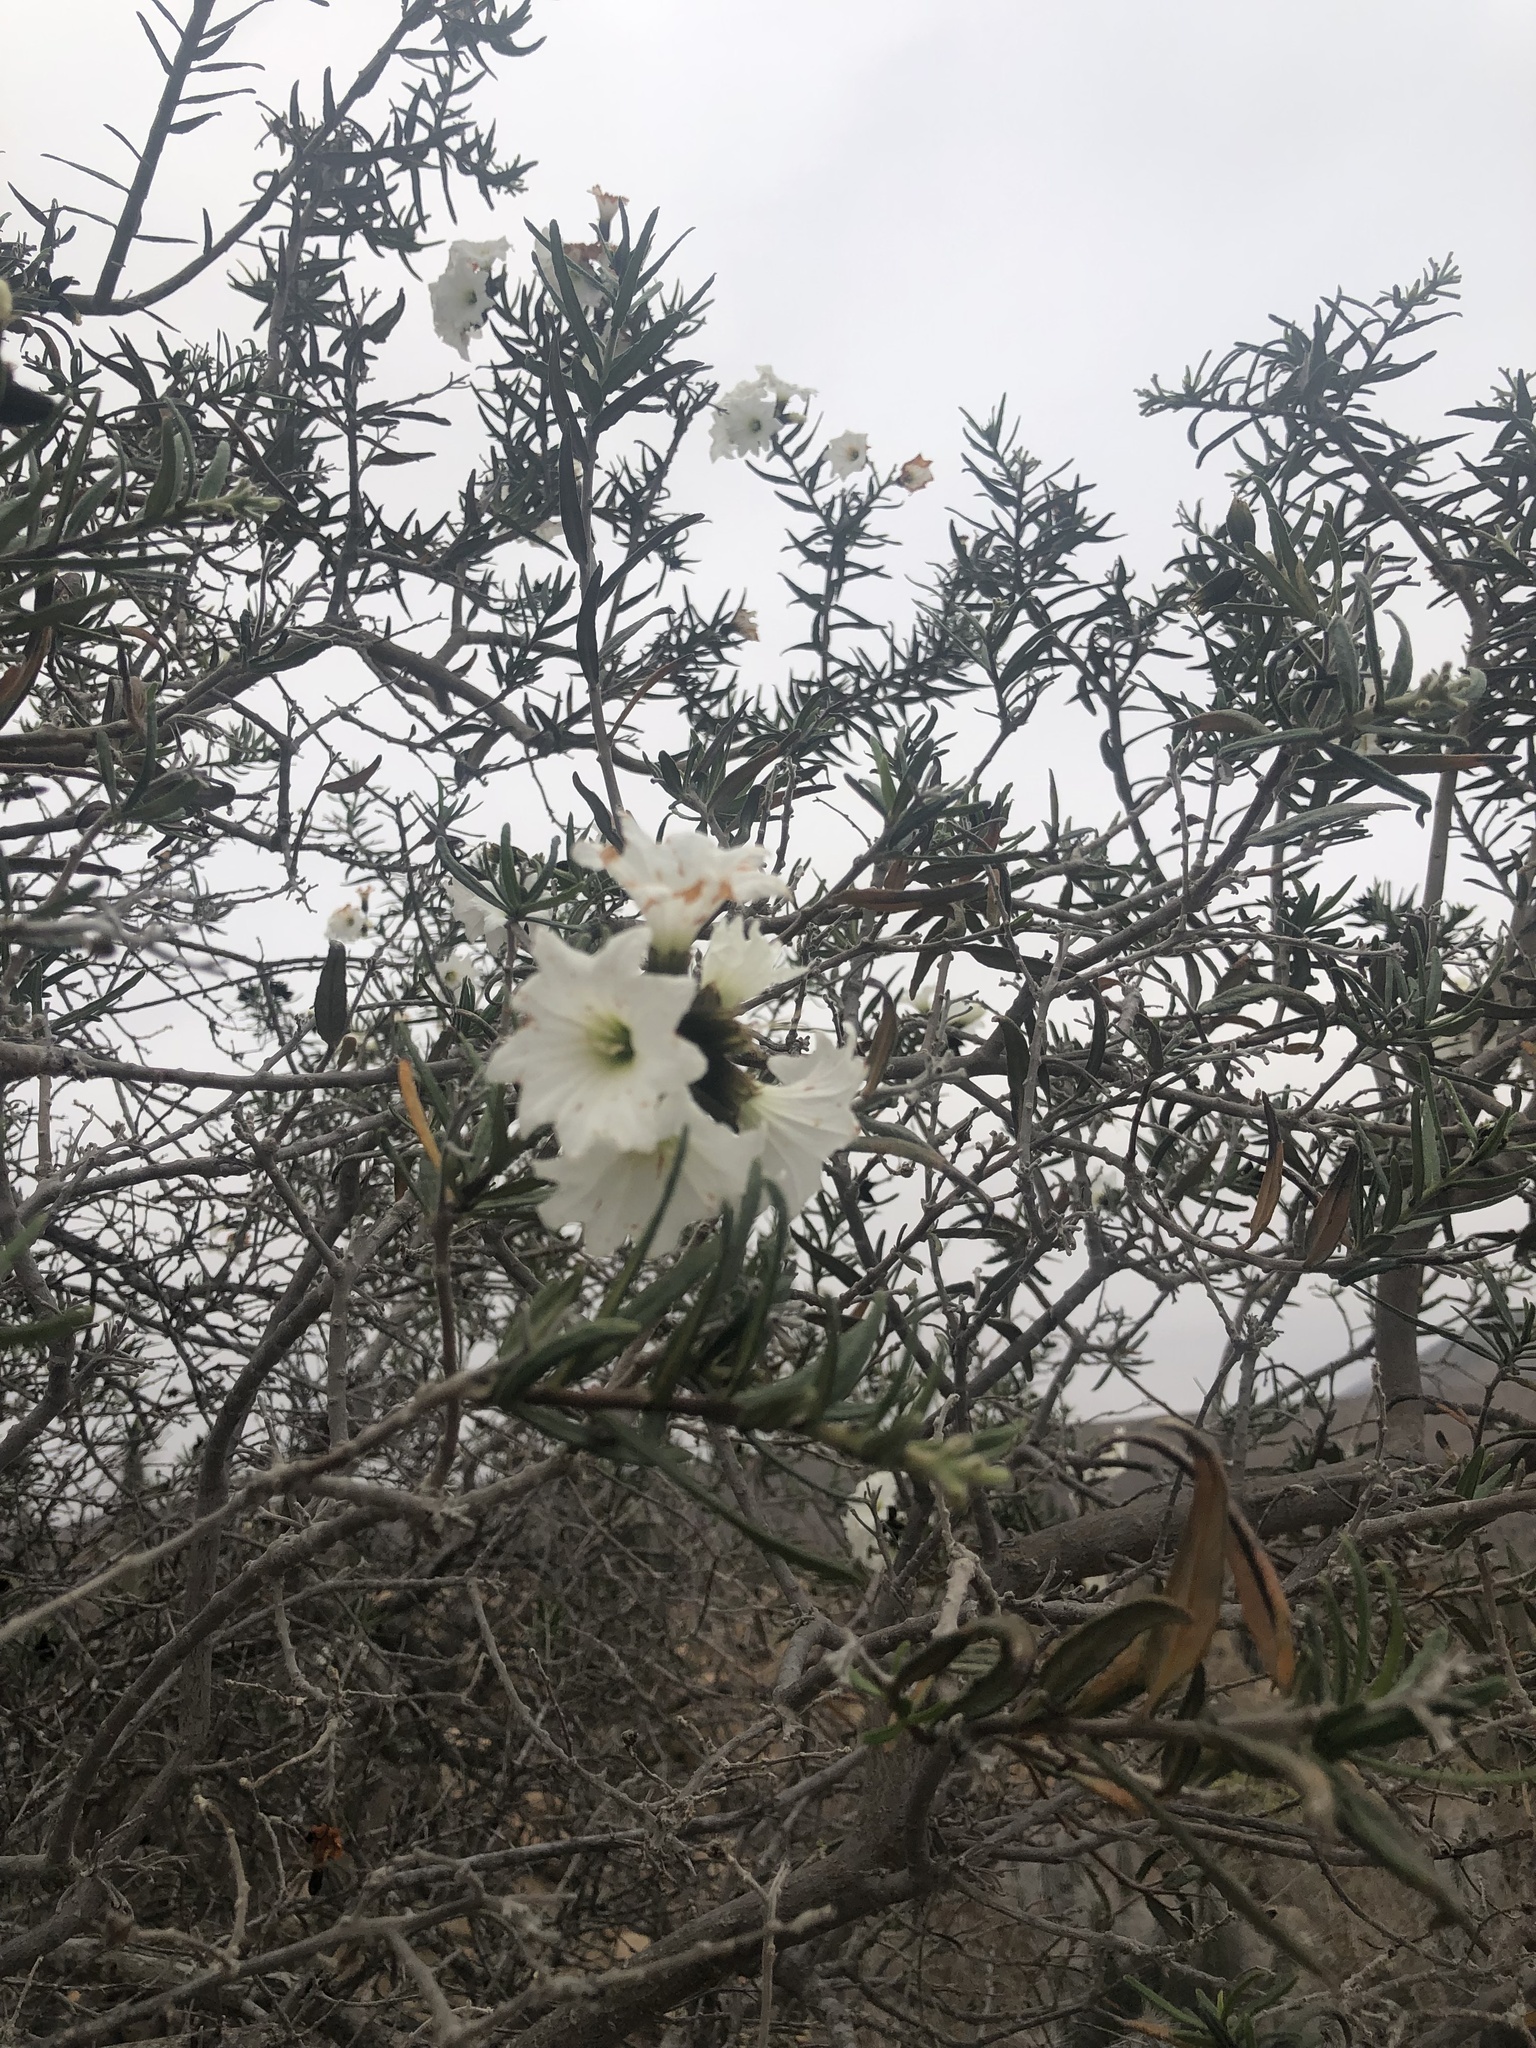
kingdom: Plantae
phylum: Tracheophyta
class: Magnoliopsida
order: Boraginales
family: Cordiaceae
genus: Cordia
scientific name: Cordia decandra
